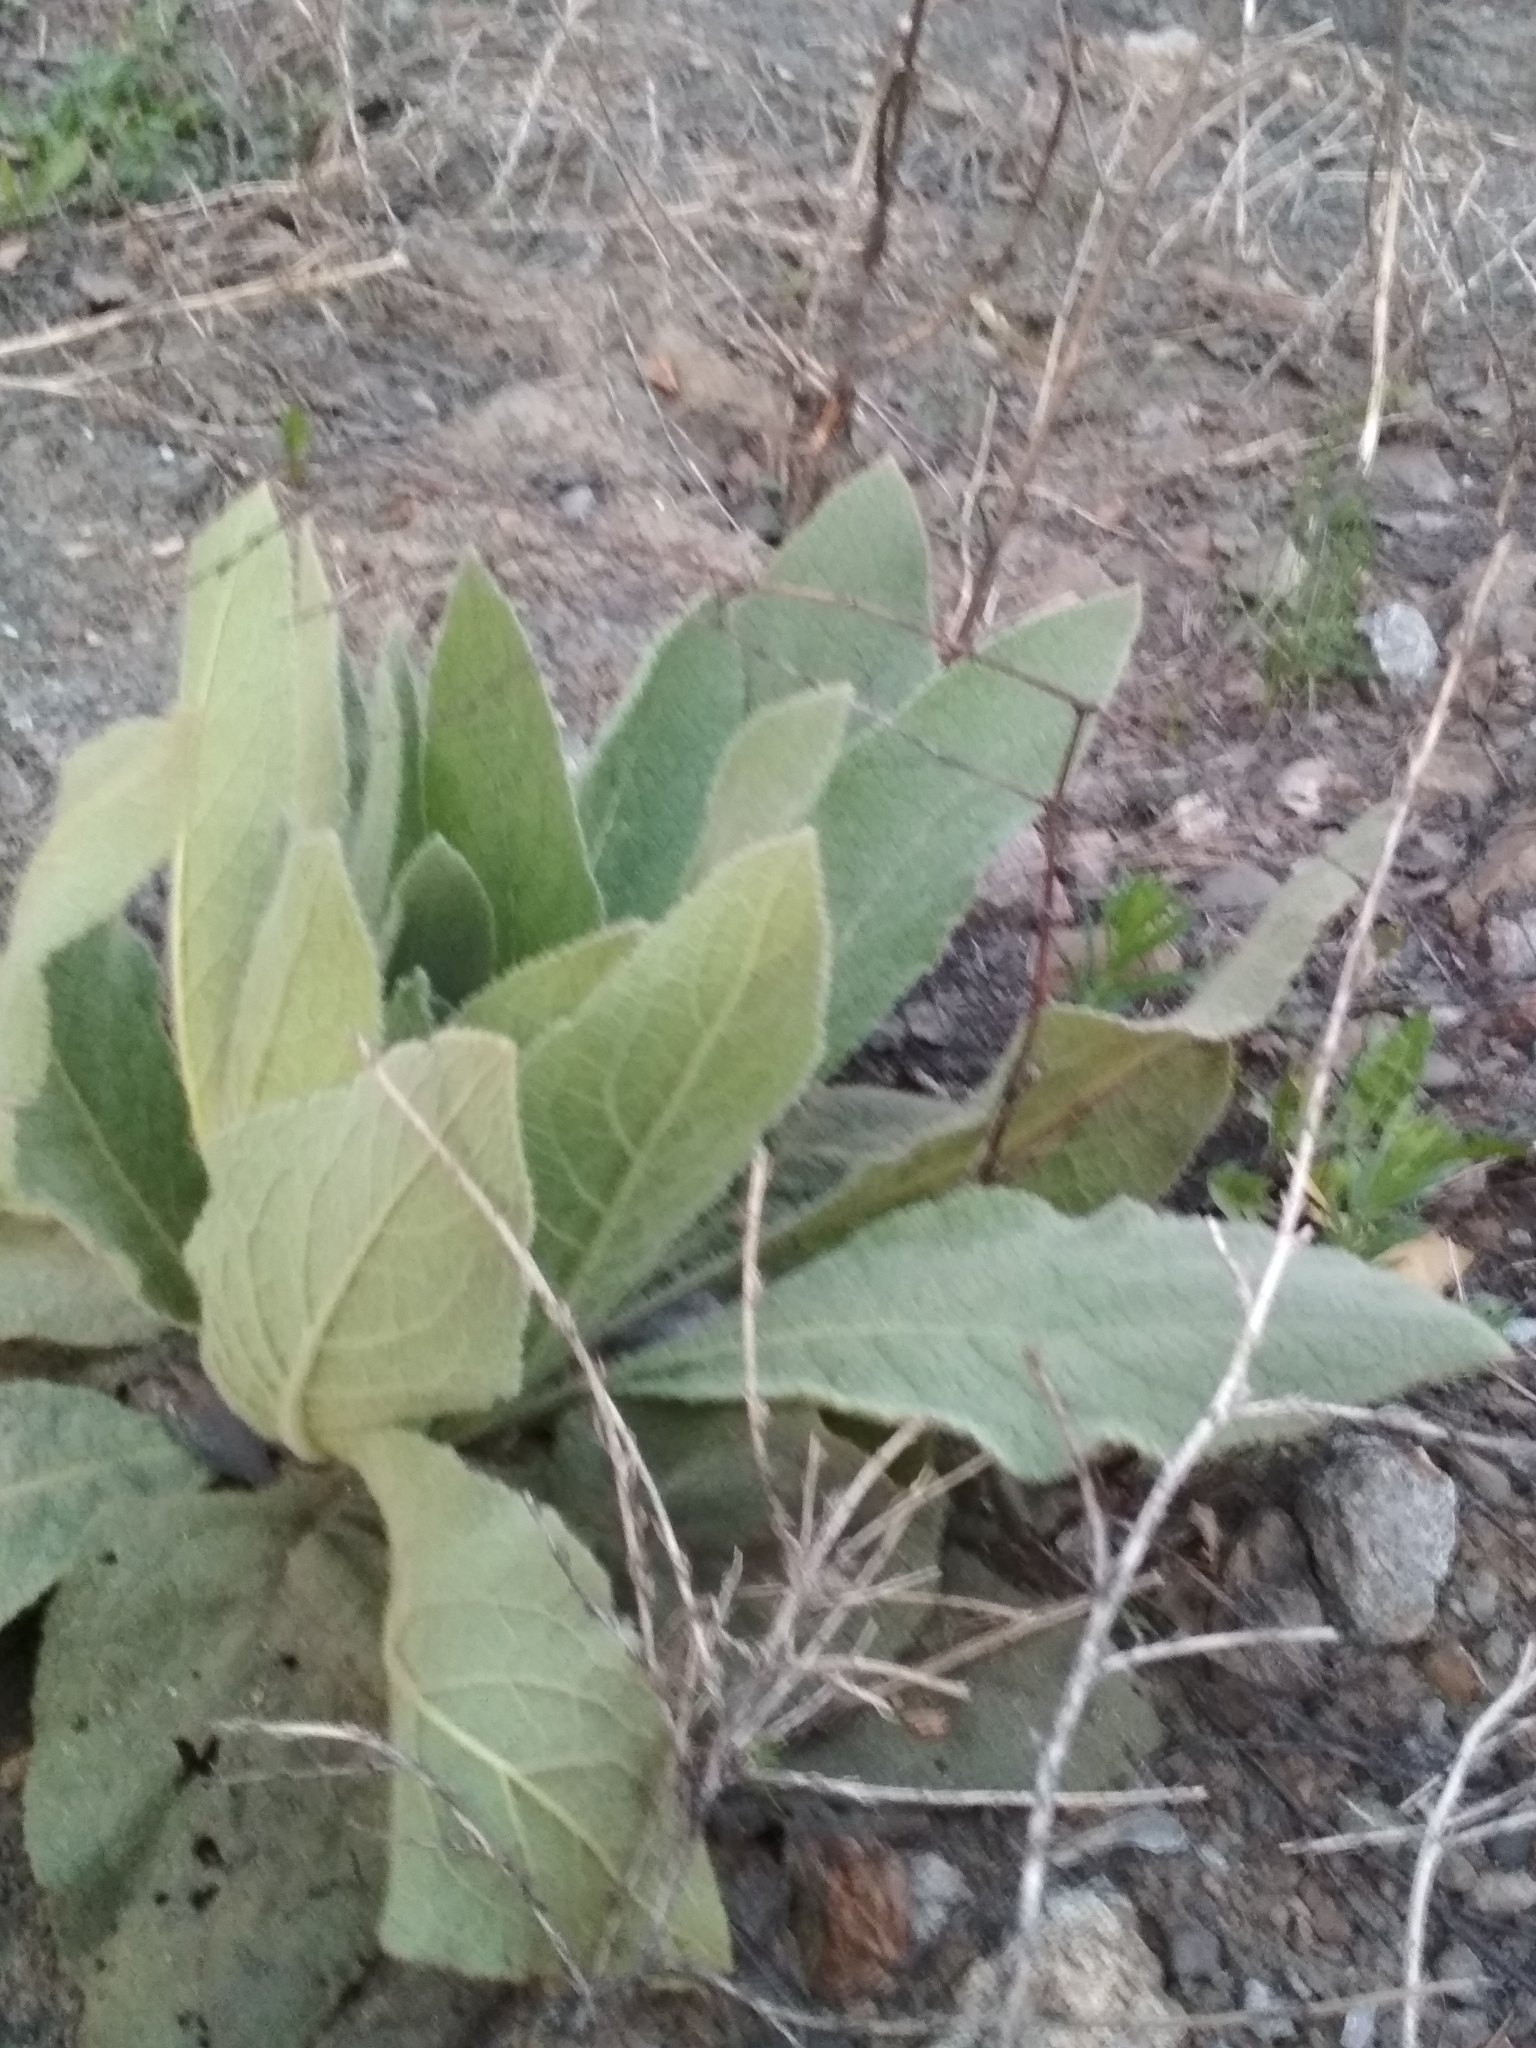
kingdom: Plantae
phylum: Tracheophyta
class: Magnoliopsida
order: Lamiales
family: Scrophulariaceae
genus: Verbascum
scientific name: Verbascum thapsus
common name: Common mullein
